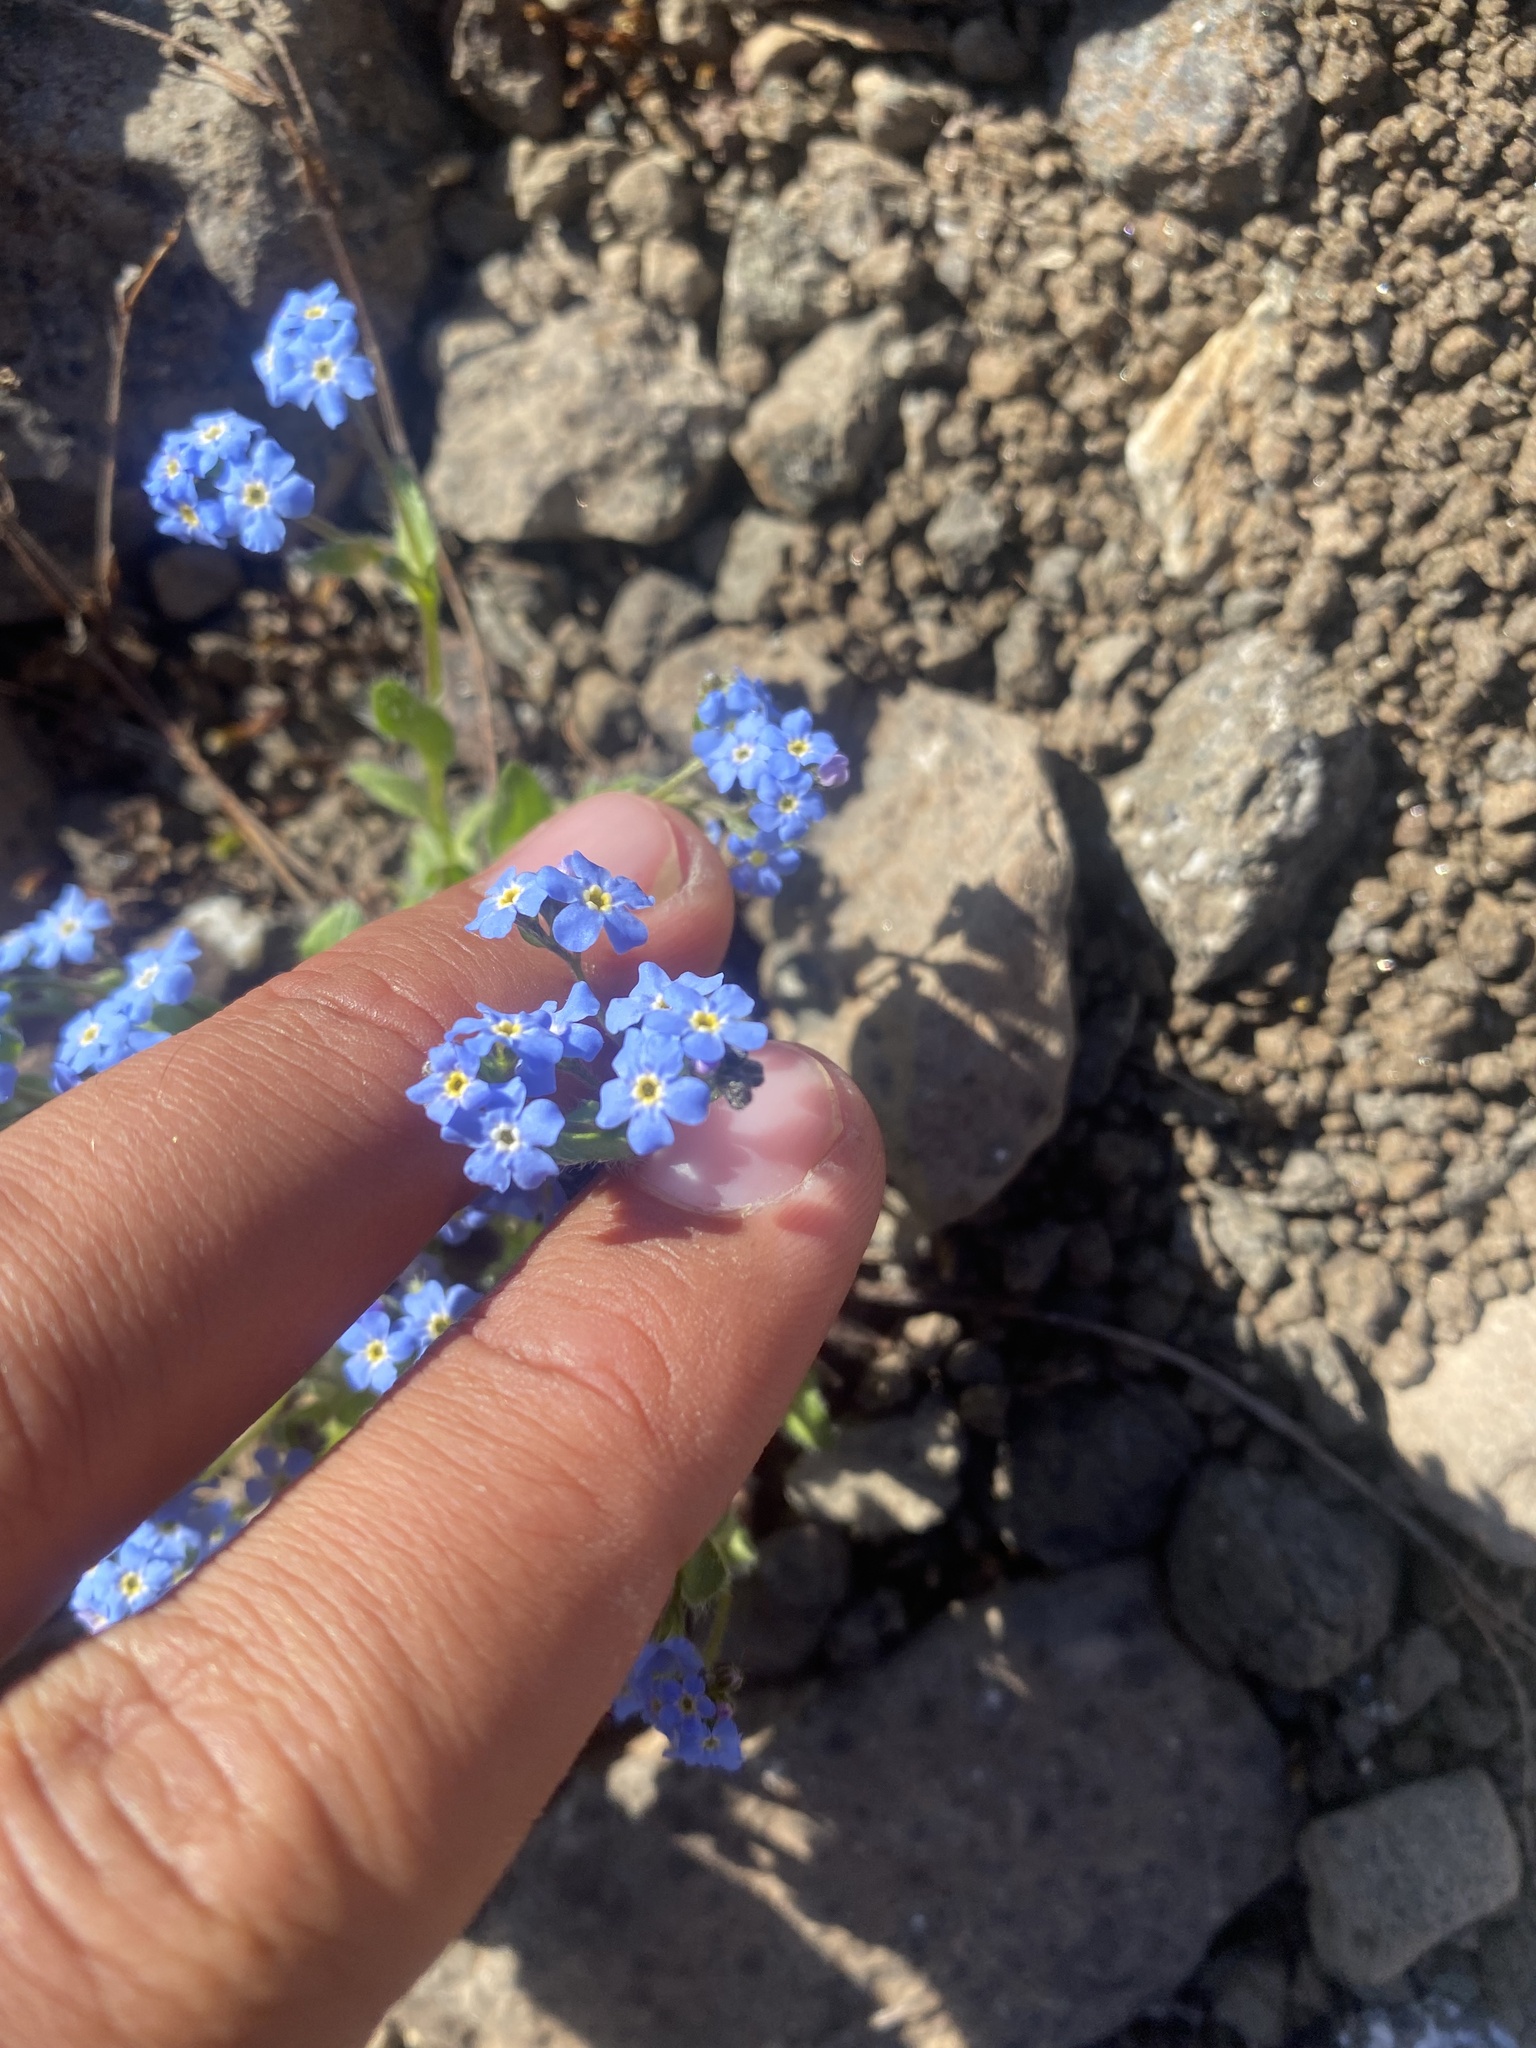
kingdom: Plantae
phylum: Tracheophyta
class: Magnoliopsida
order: Boraginales
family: Boraginaceae
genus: Eritrichium
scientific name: Eritrichium villosum
